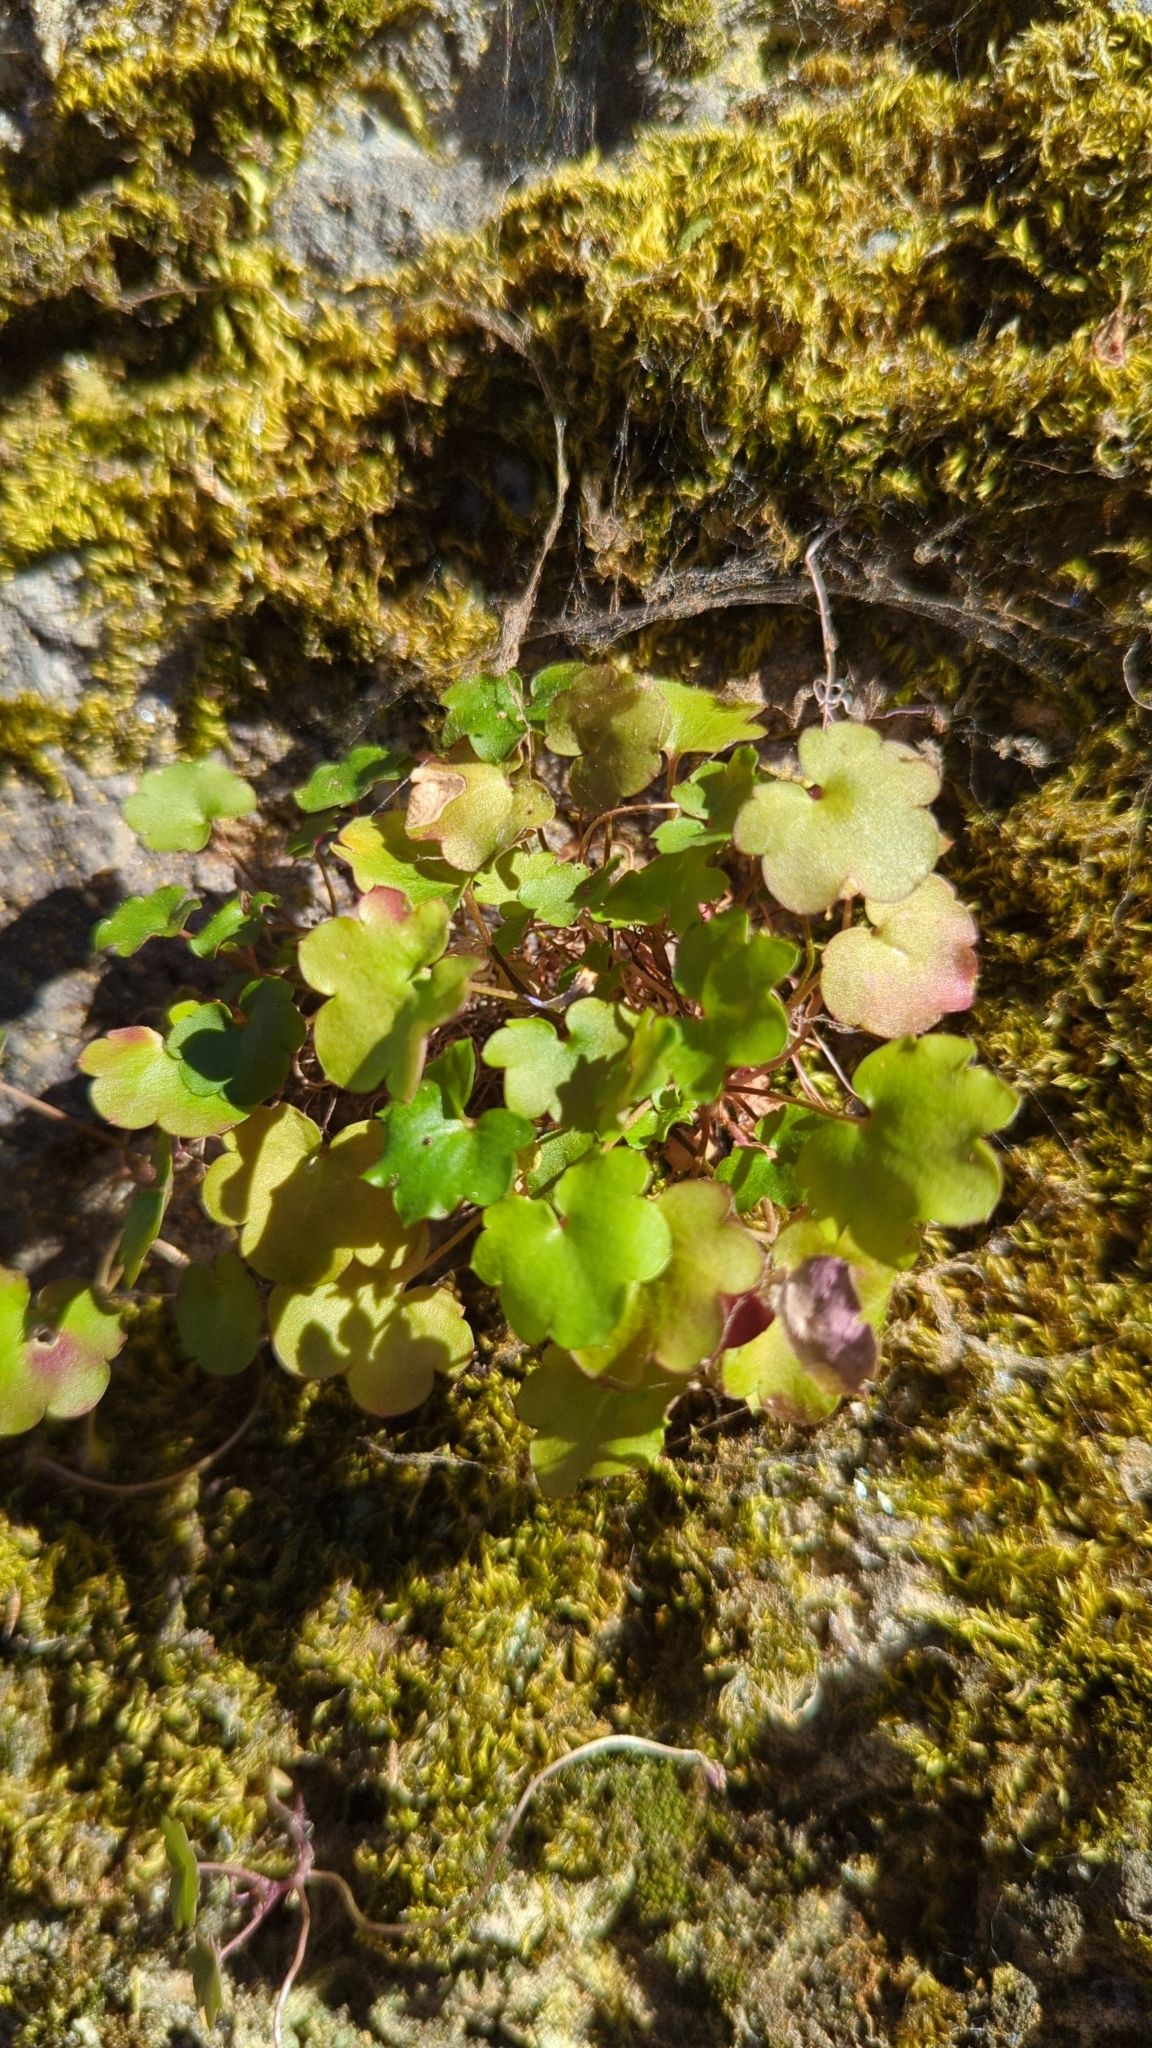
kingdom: Plantae
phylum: Tracheophyta
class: Magnoliopsida
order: Lamiales
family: Plantaginaceae
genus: Cymbalaria
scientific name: Cymbalaria muralis
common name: Ivy-leaved toadflax
